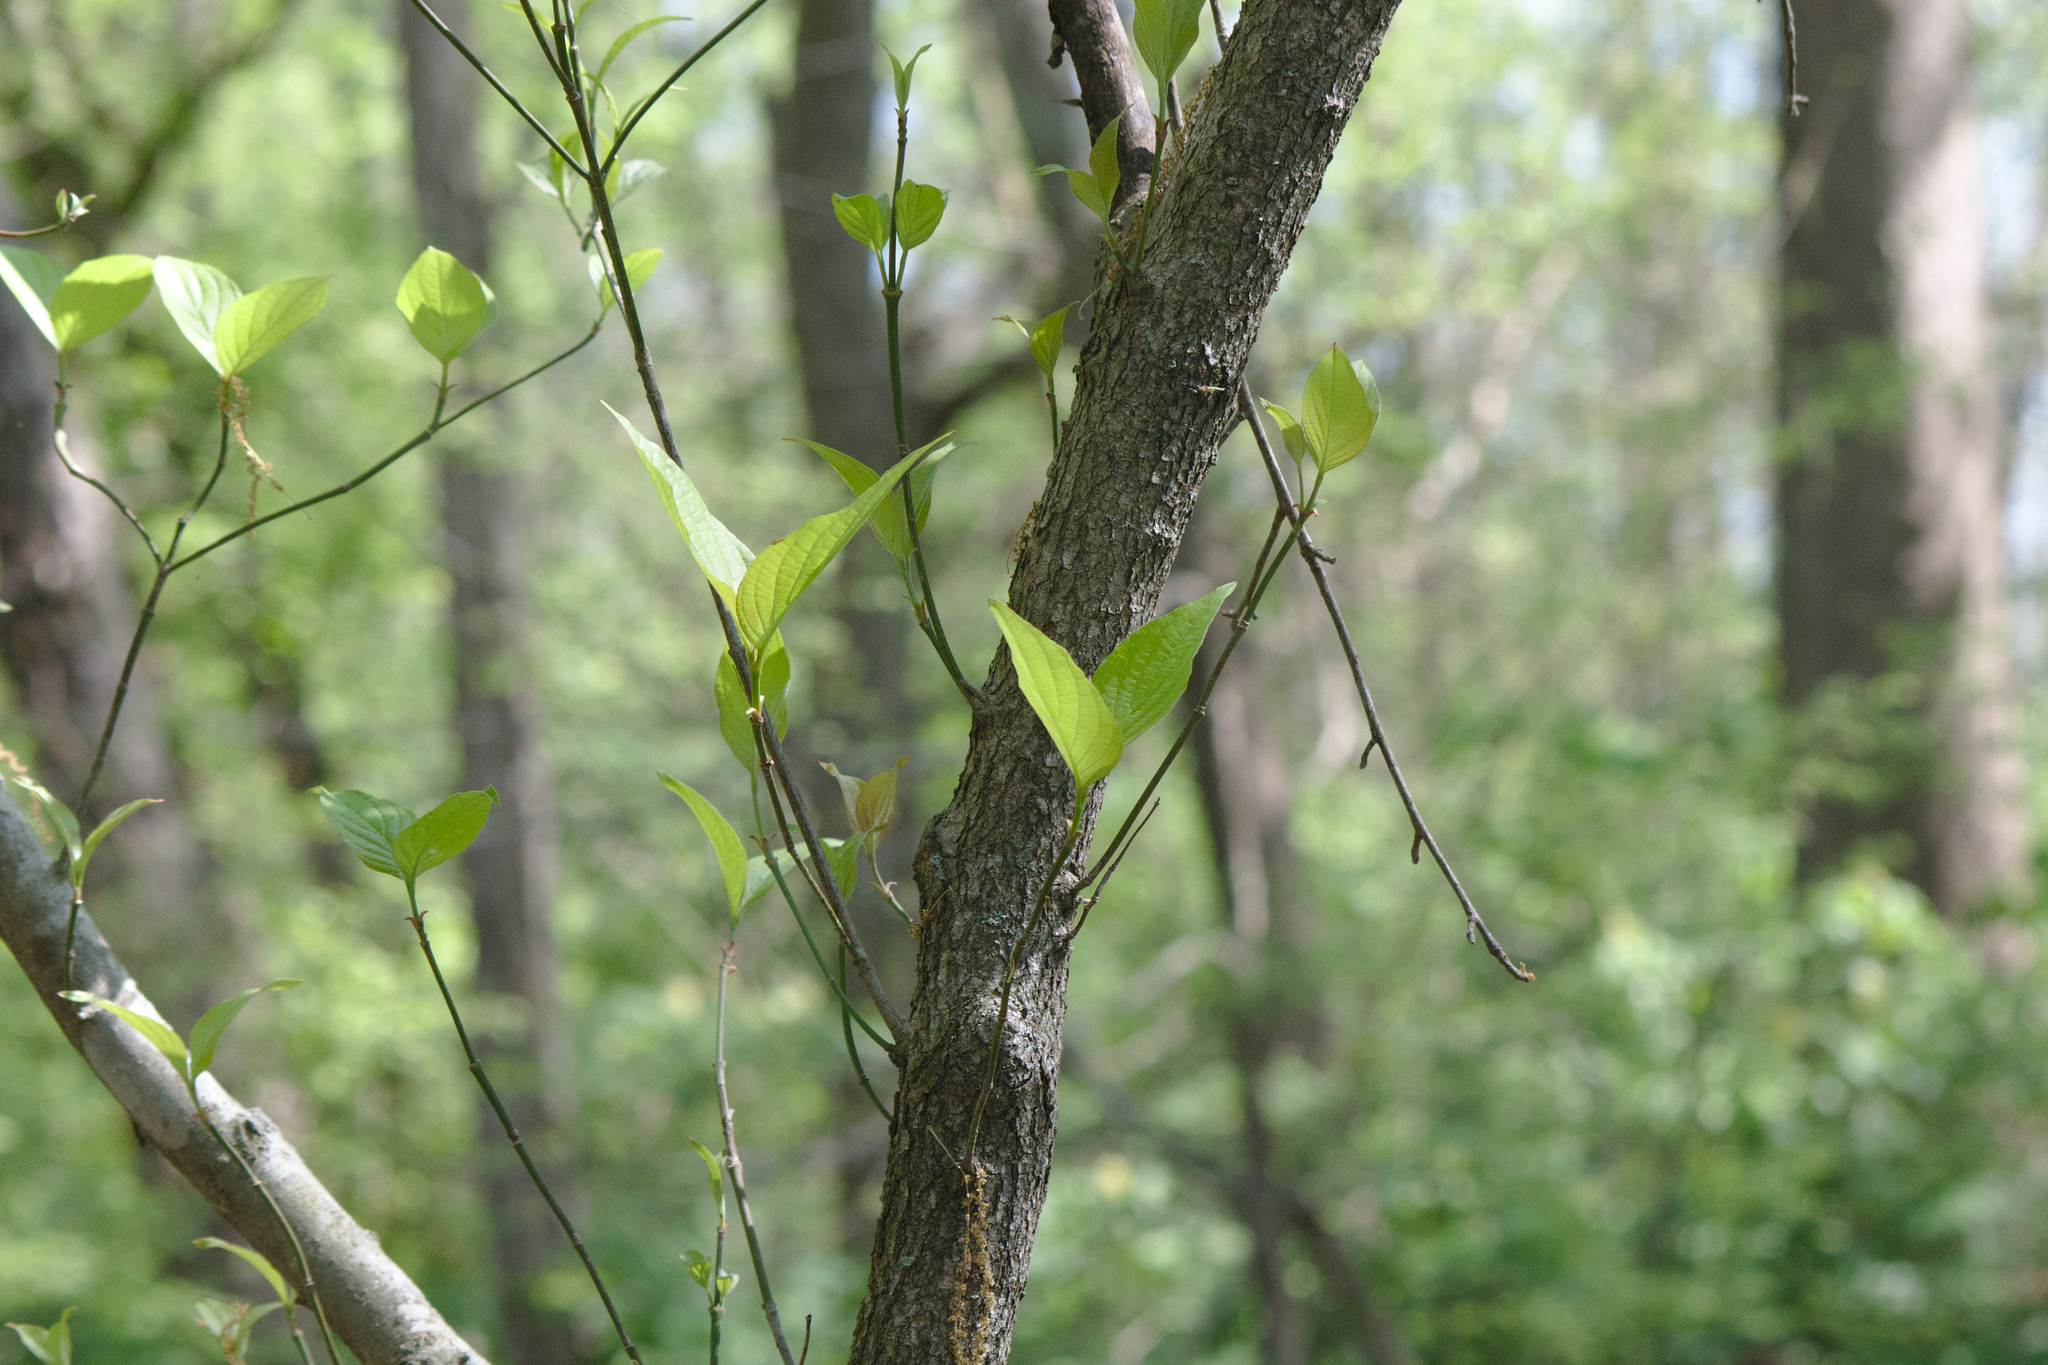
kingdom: Plantae
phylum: Tracheophyta
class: Magnoliopsida
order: Cornales
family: Cornaceae
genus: Cornus
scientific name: Cornus florida
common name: Flowering dogwood
